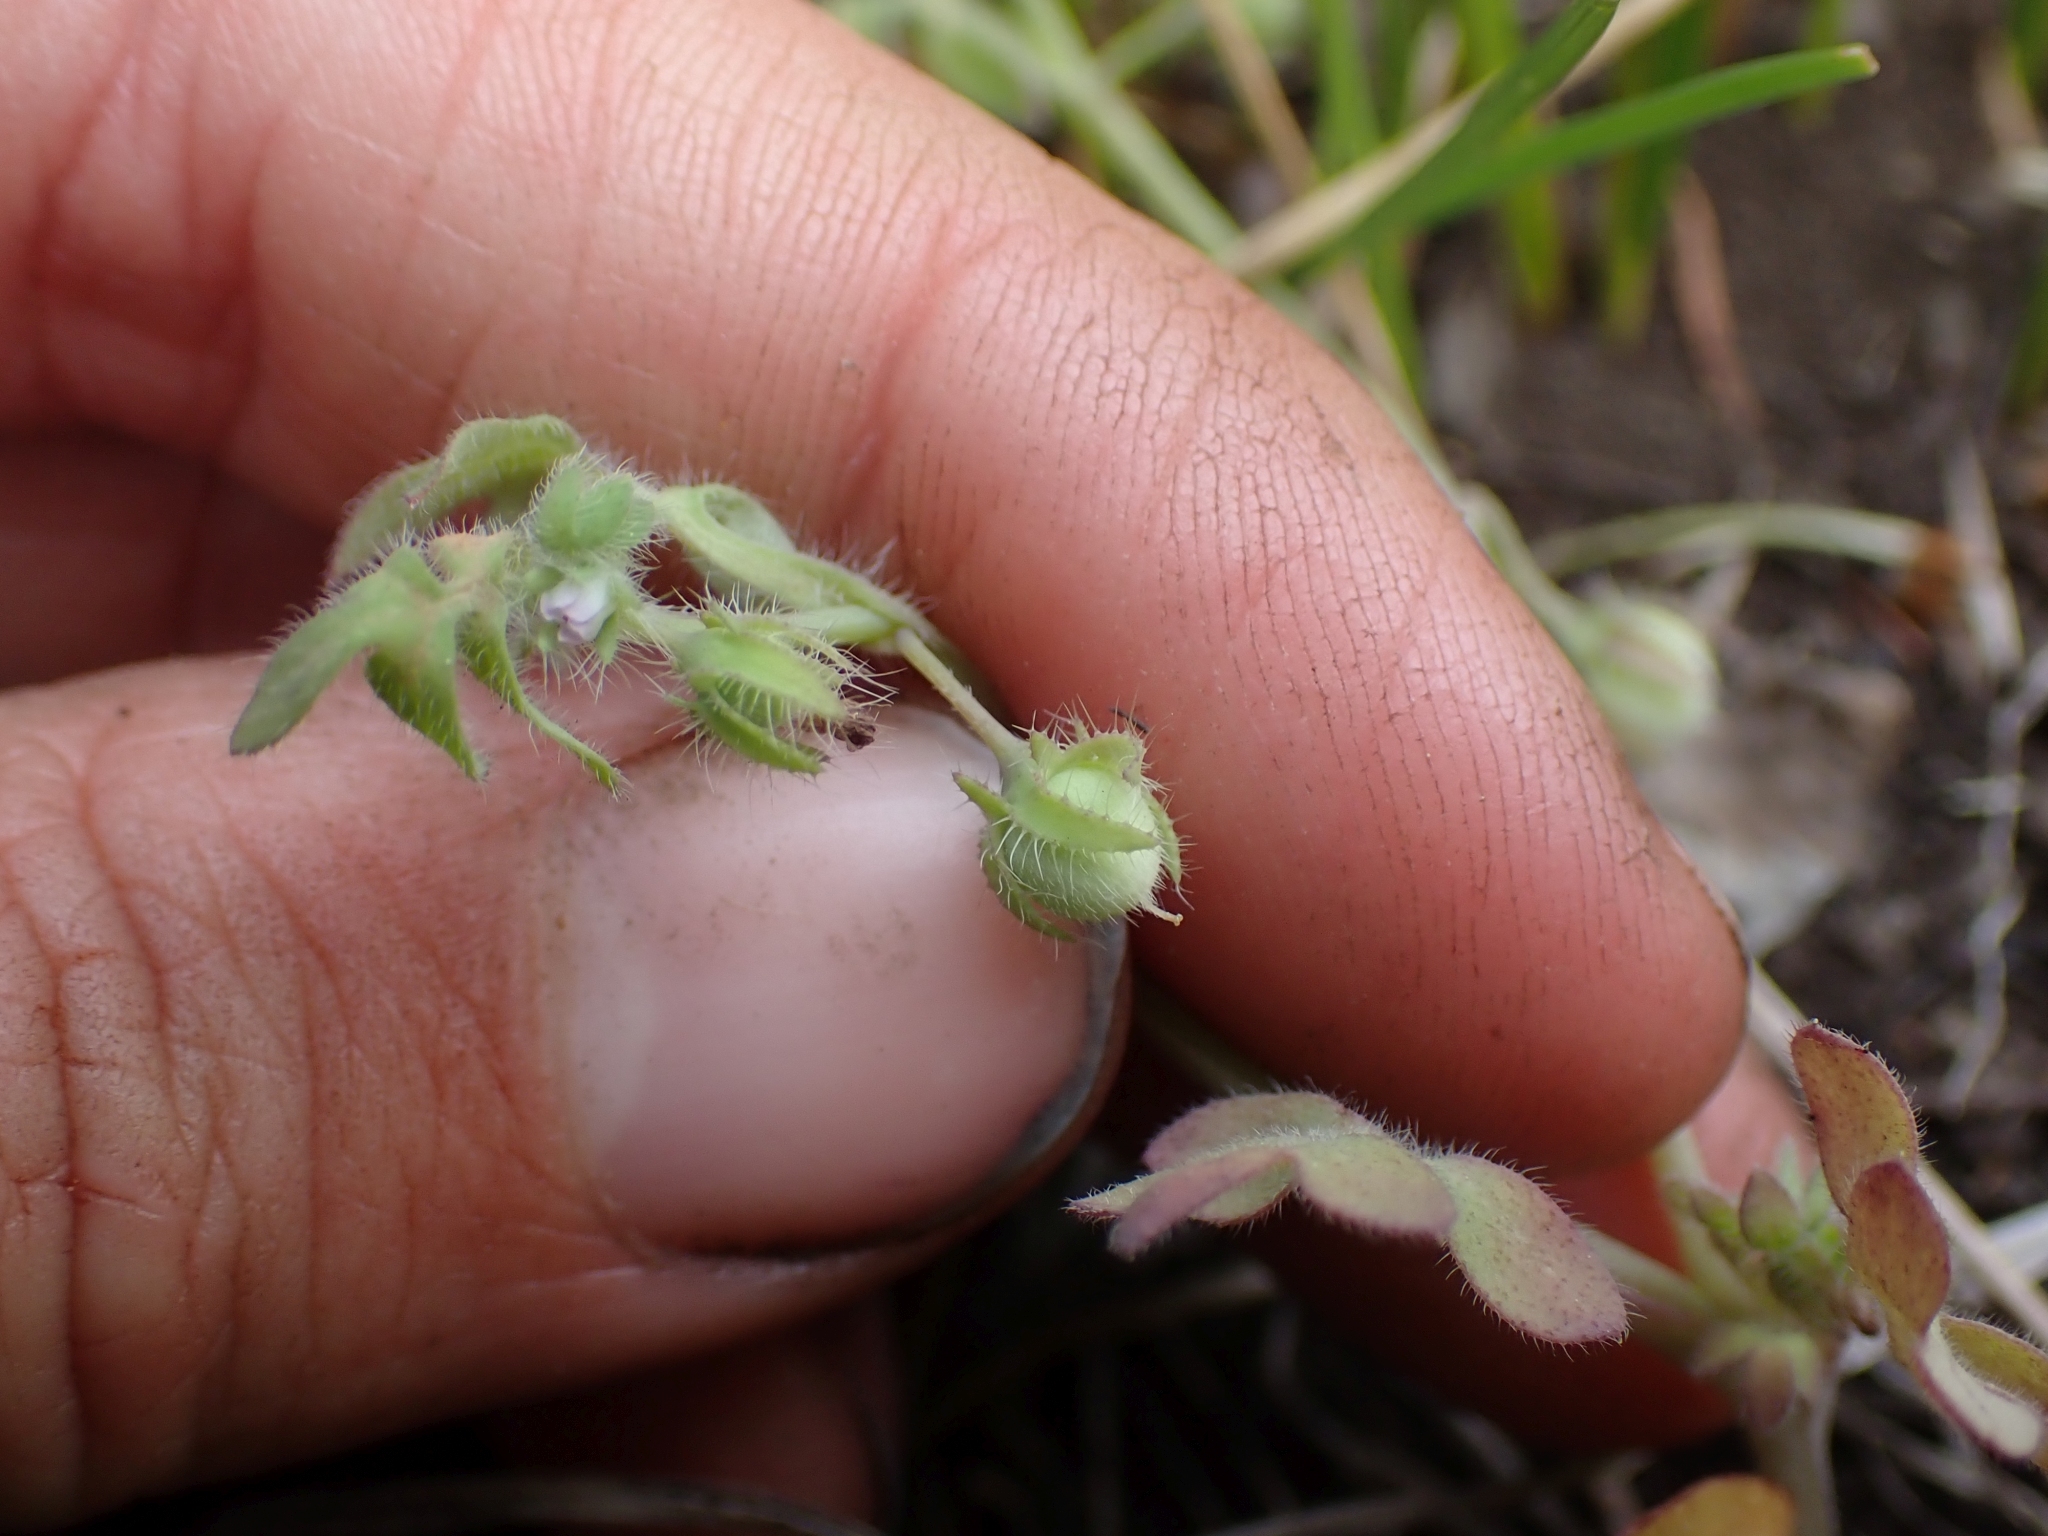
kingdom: Plantae
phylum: Tracheophyta
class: Magnoliopsida
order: Boraginales
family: Hydrophyllaceae
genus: Nemophila
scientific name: Nemophila breviflora
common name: Great basin baby-blue-eyes
